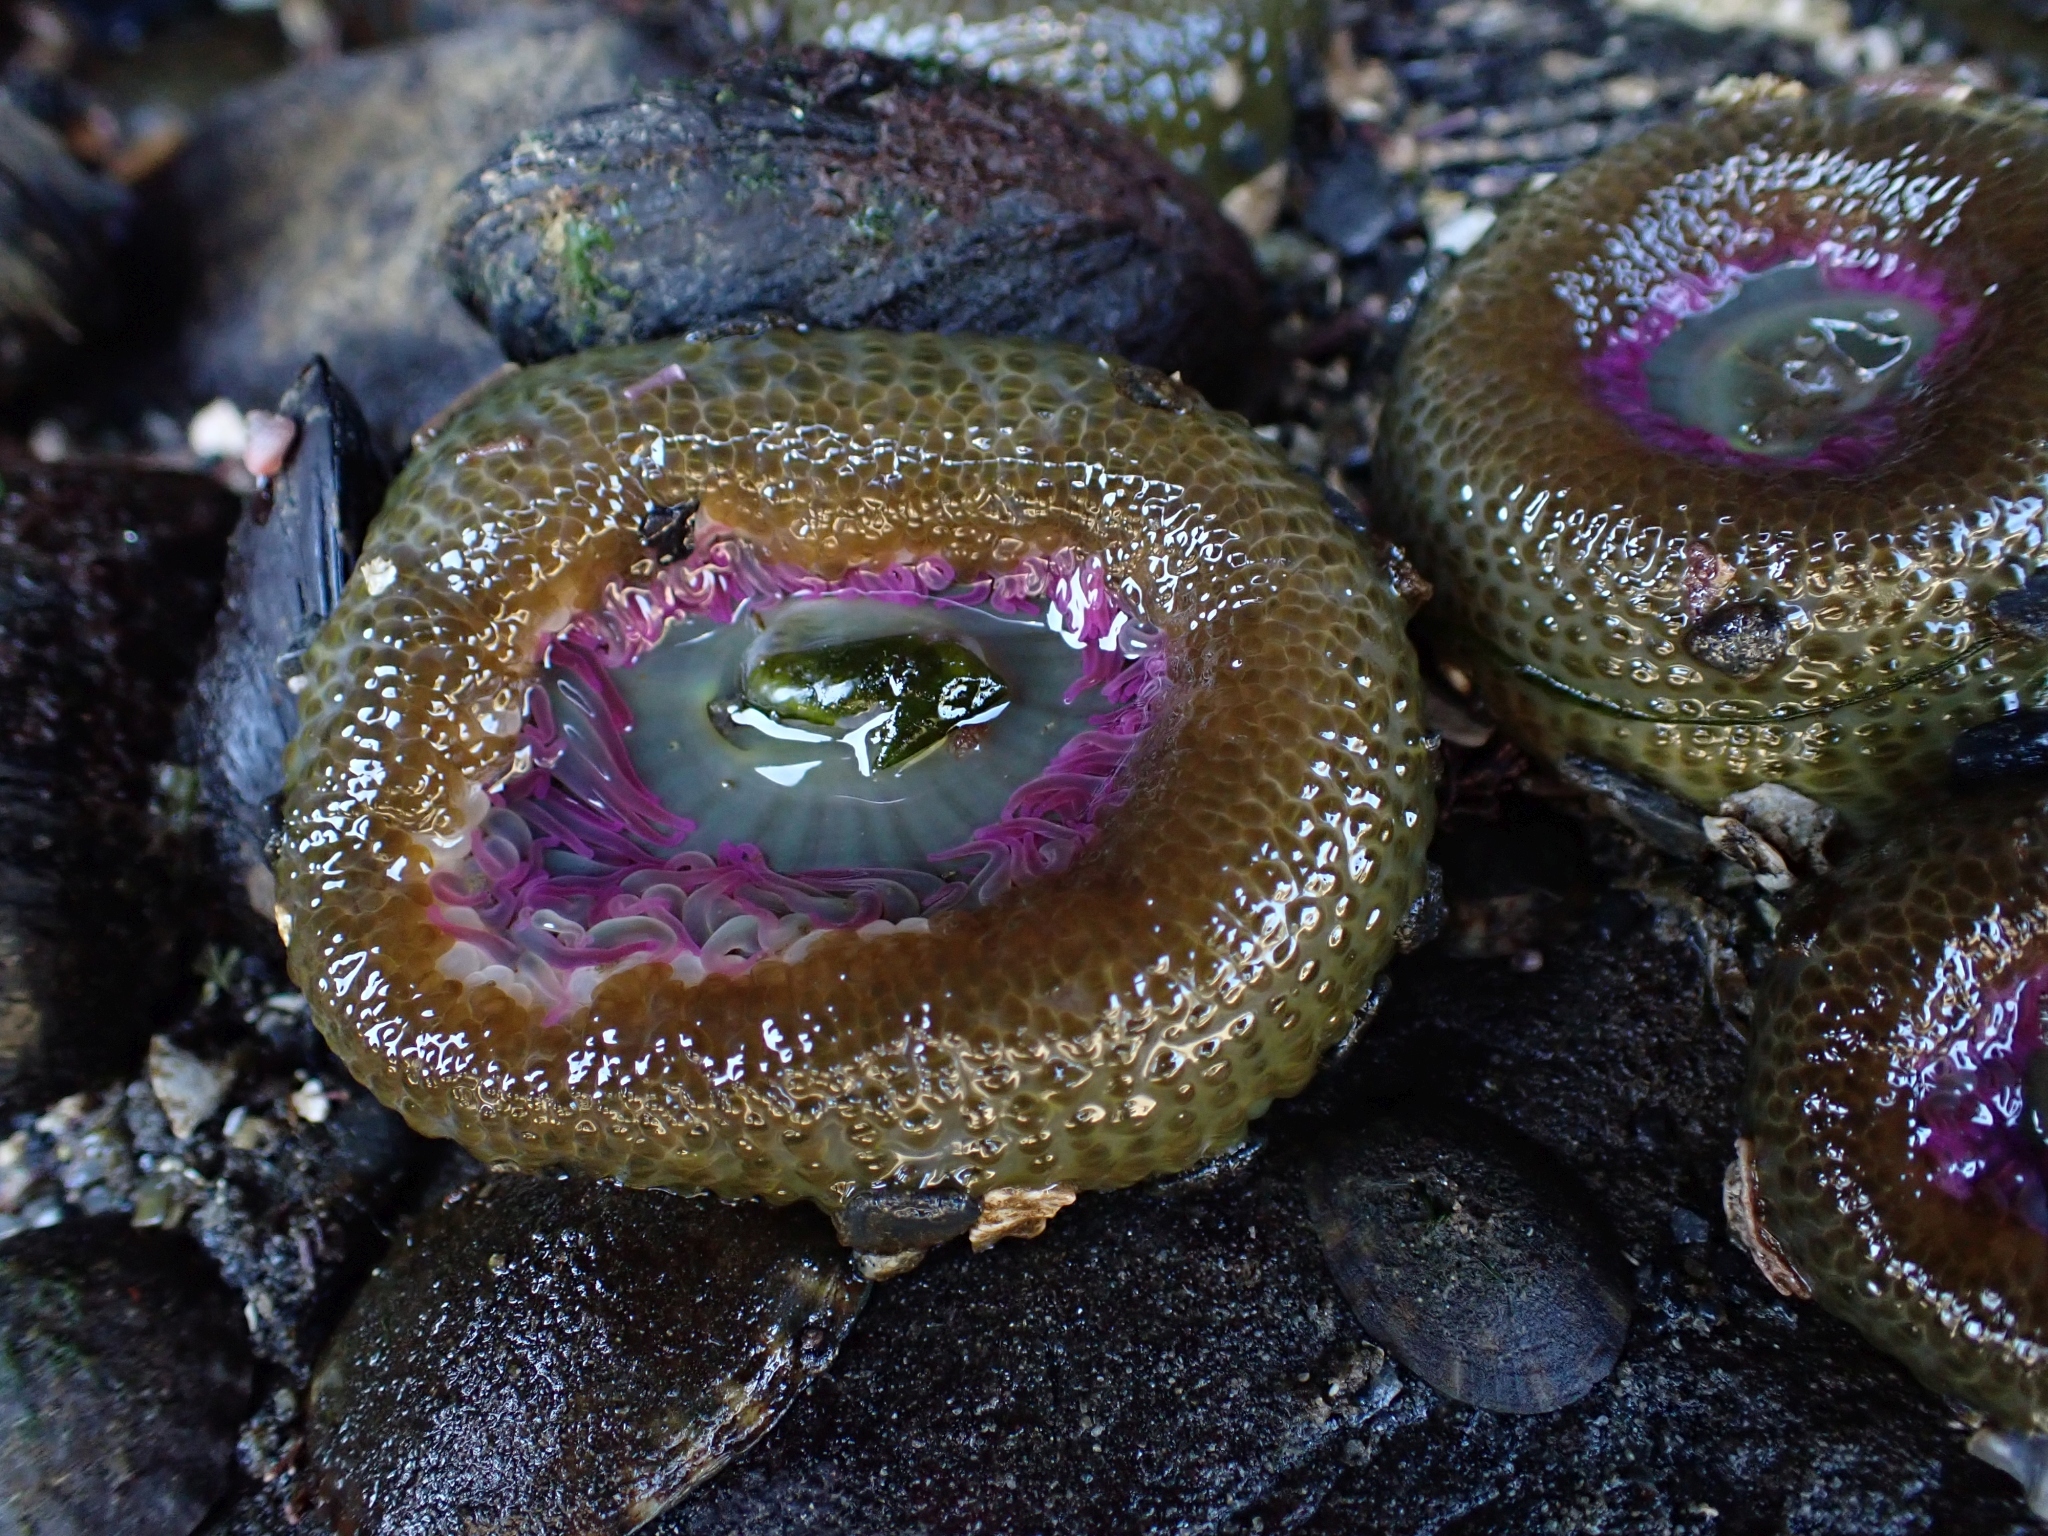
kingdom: Animalia
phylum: Cnidaria
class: Anthozoa
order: Actiniaria
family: Actiniidae
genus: Anthopleura
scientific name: Anthopleura elegantissima
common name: Clonal anemone
